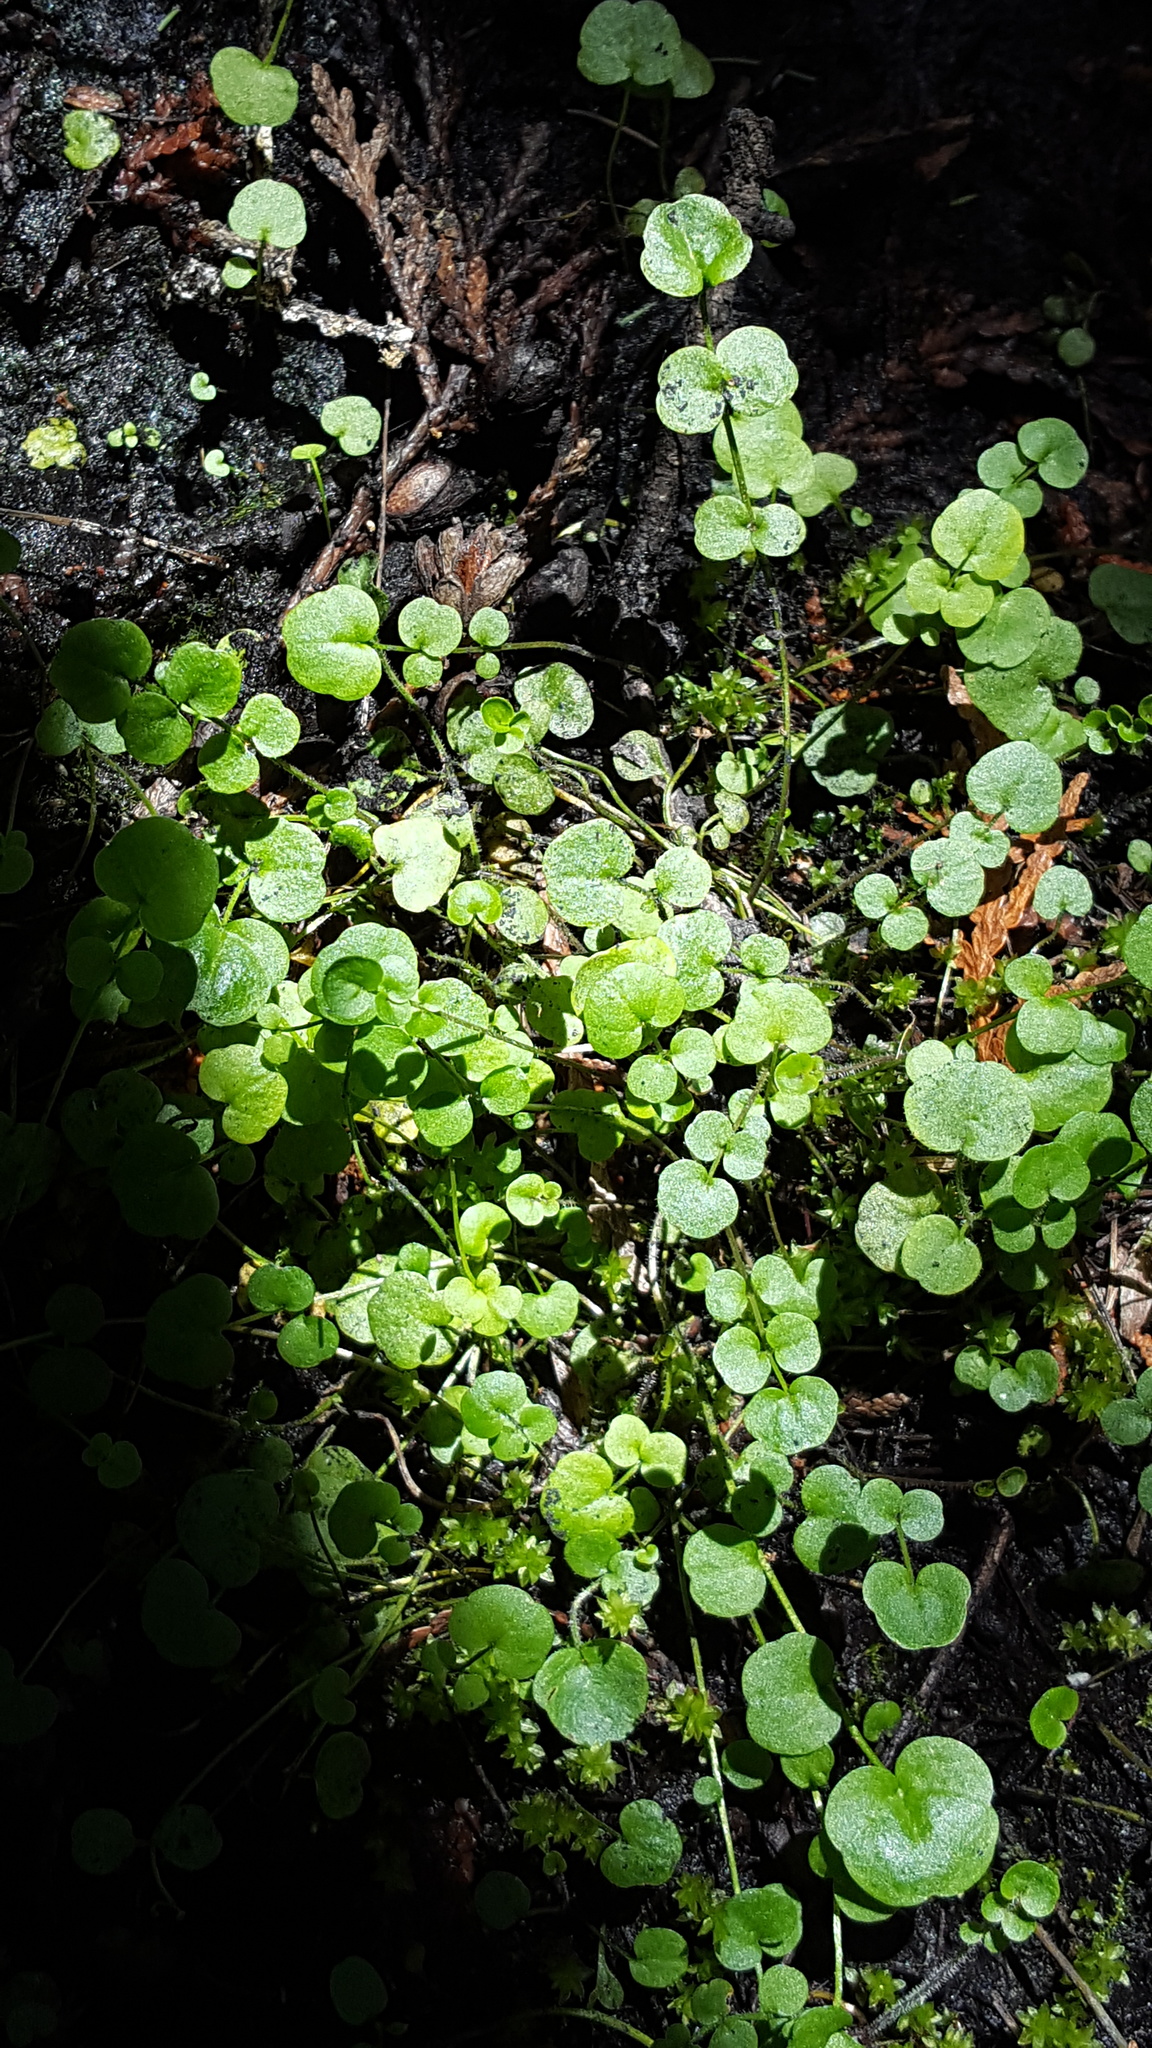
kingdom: Plantae
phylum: Tracheophyta
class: Magnoliopsida
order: Brassicales
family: Brassicaceae
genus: Cardamine
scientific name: Cardamine pratensis
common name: Cuckoo flower
